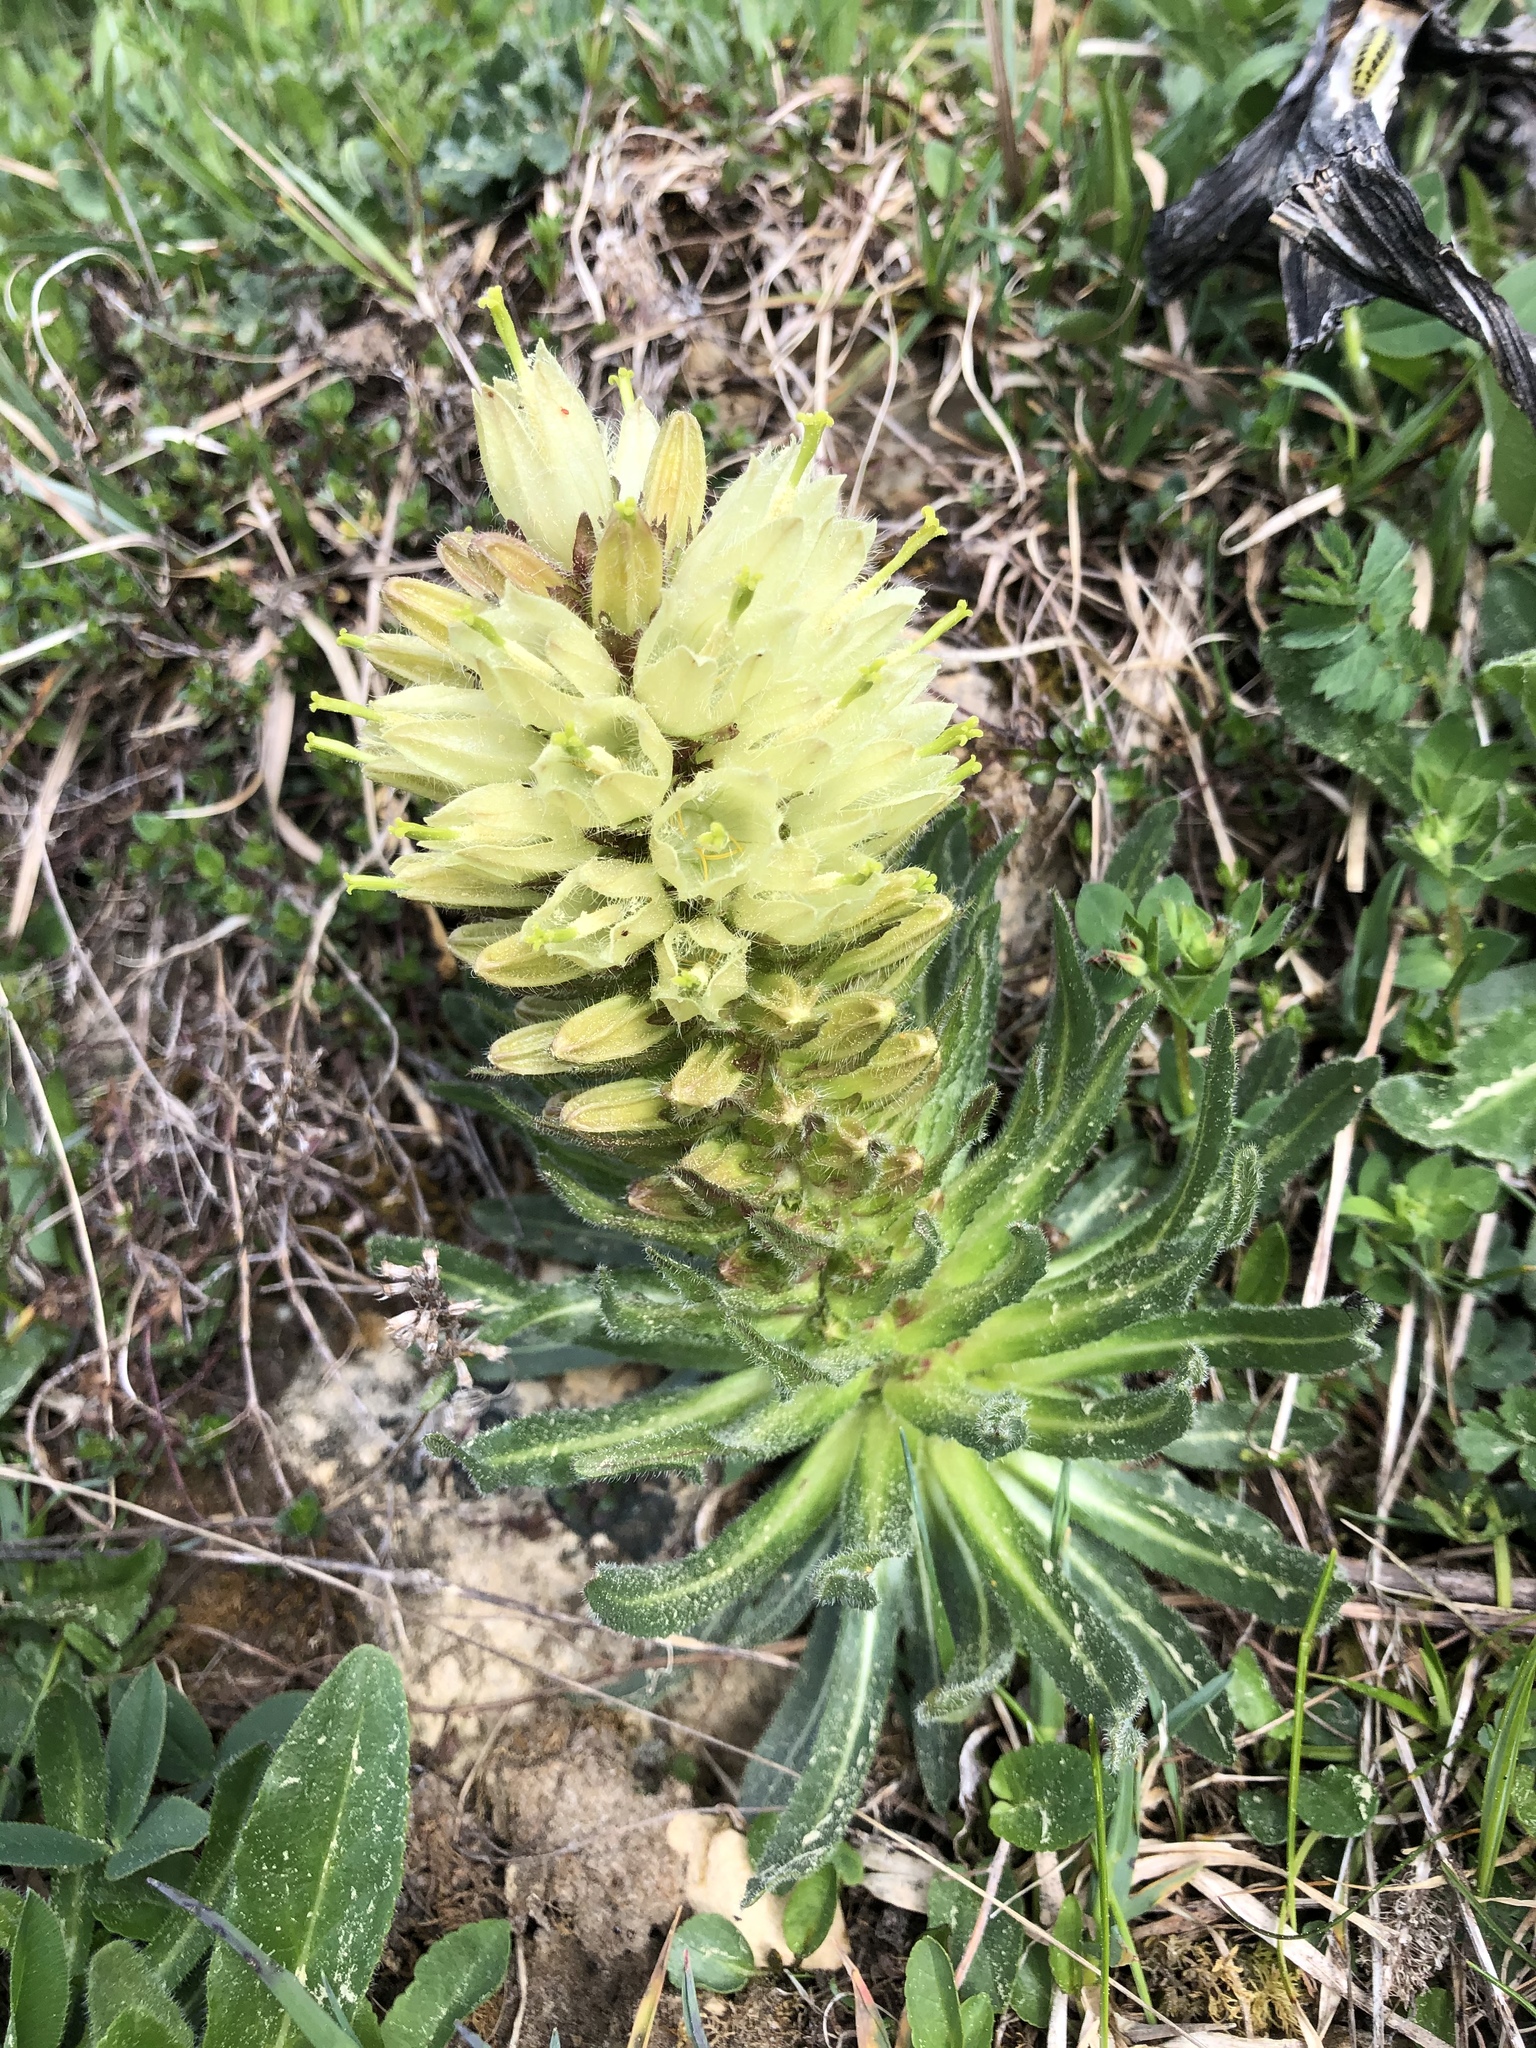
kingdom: Plantae
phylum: Tracheophyta
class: Magnoliopsida
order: Asterales
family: Campanulaceae
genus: Campanula
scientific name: Campanula thyrsoides
